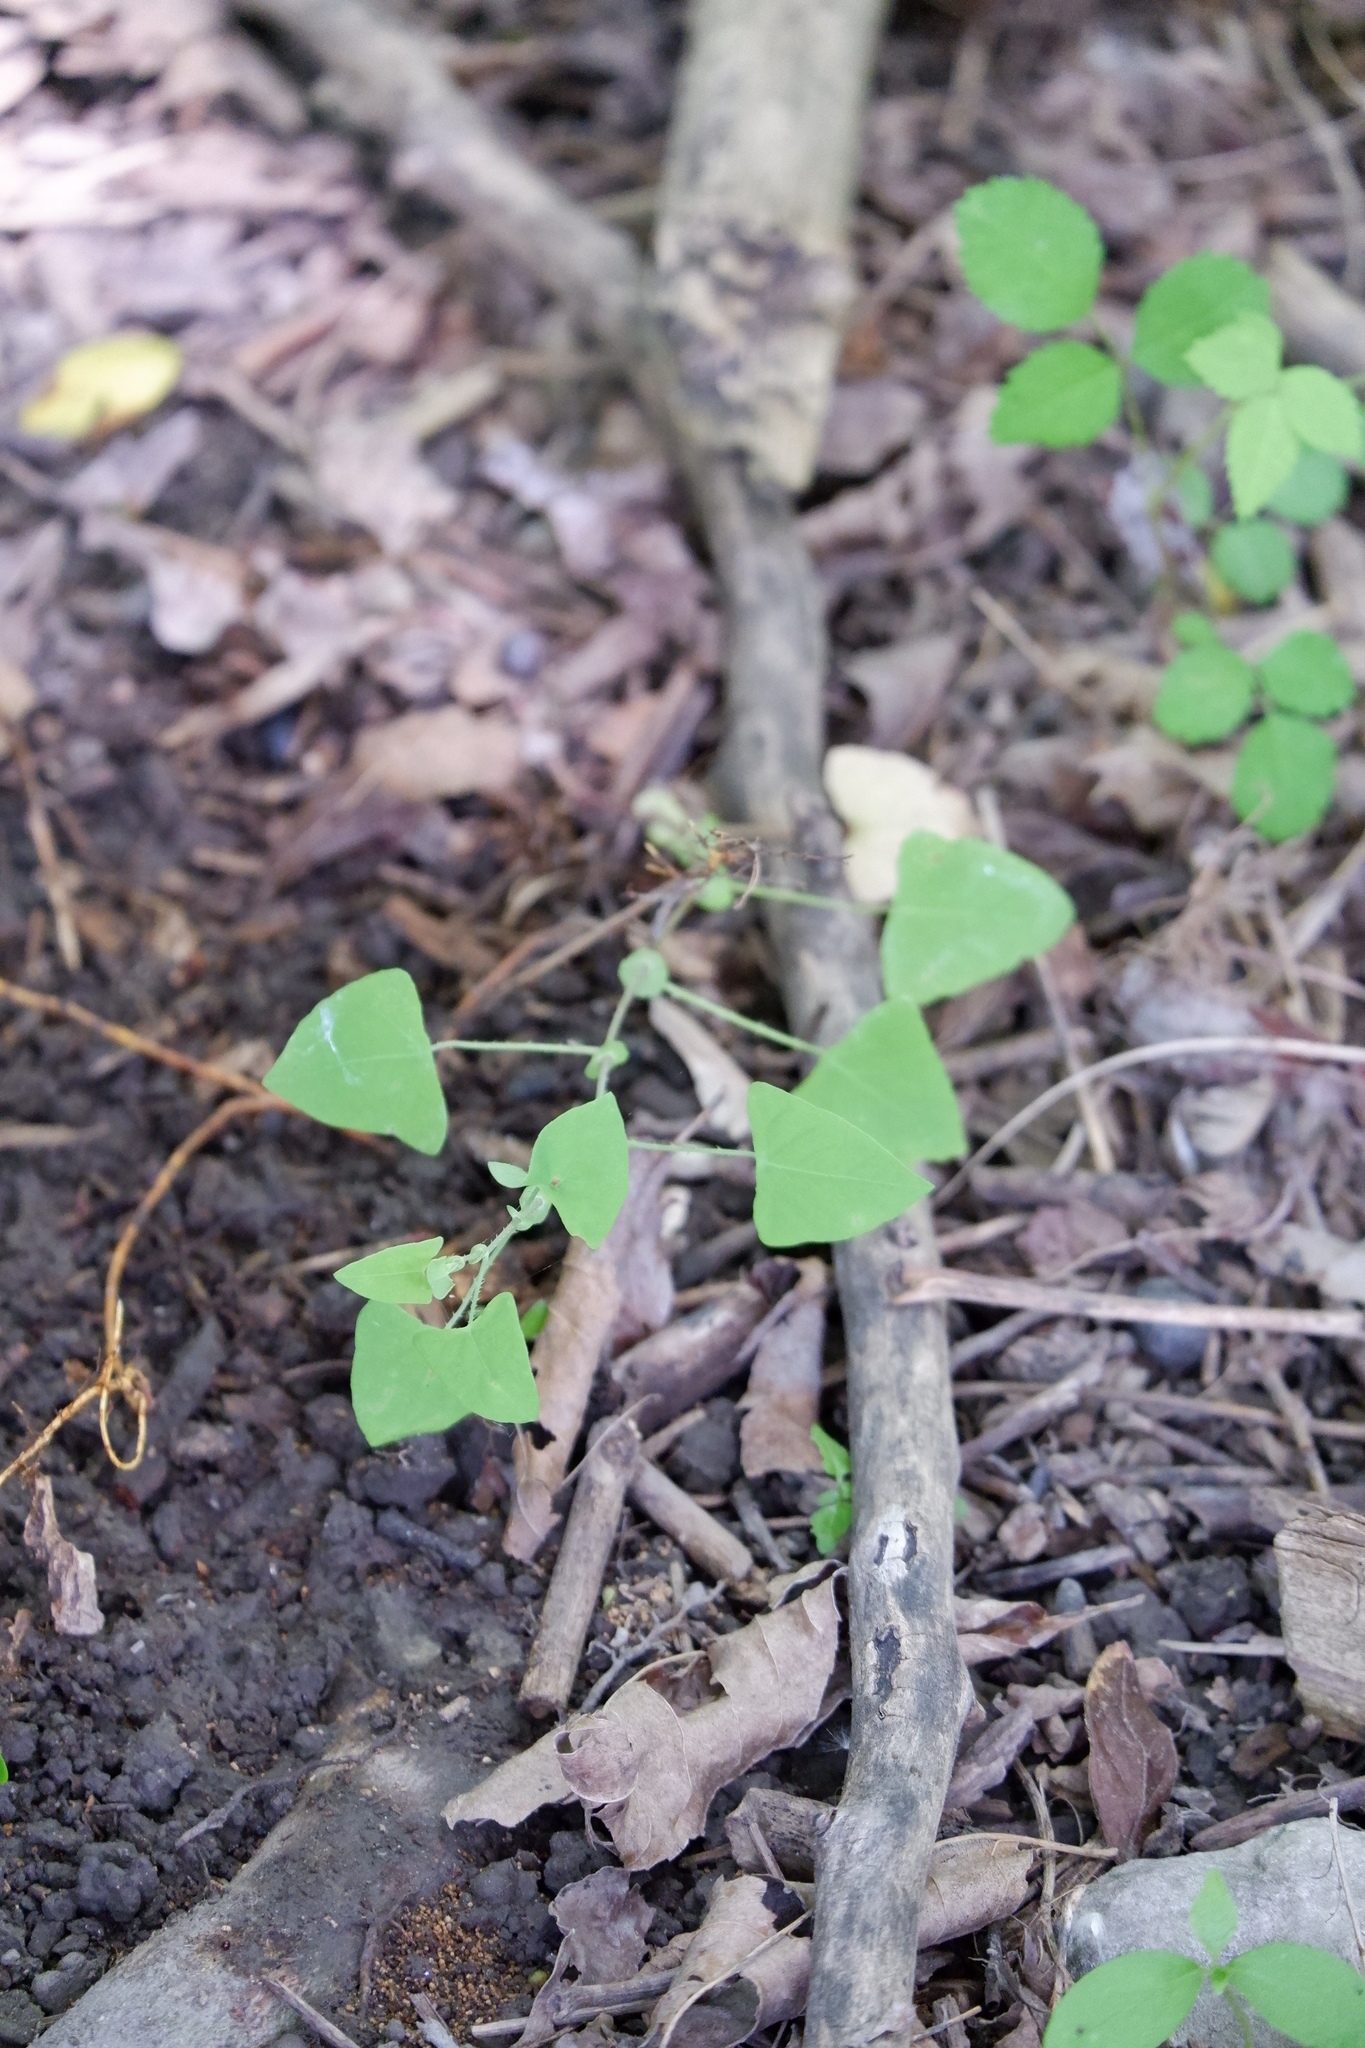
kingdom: Plantae
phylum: Tracheophyta
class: Magnoliopsida
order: Caryophyllales
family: Polygonaceae
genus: Persicaria
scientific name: Persicaria perfoliata
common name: Asiatic tearthumb
